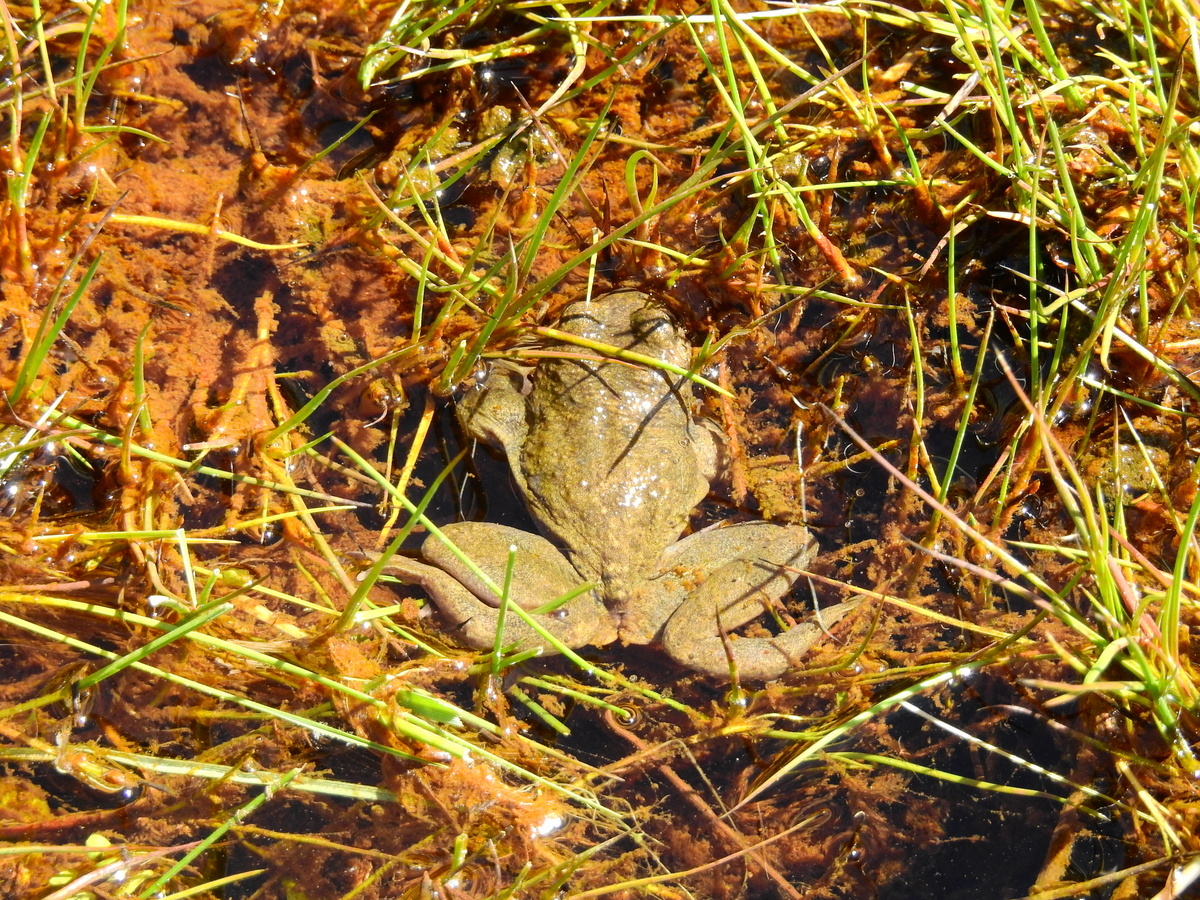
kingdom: Animalia
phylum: Chordata
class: Amphibia
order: Anura
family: Alsodidae
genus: Alsodes
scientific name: Alsodes pehuenche
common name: Pehuenche spiny-chest frog
